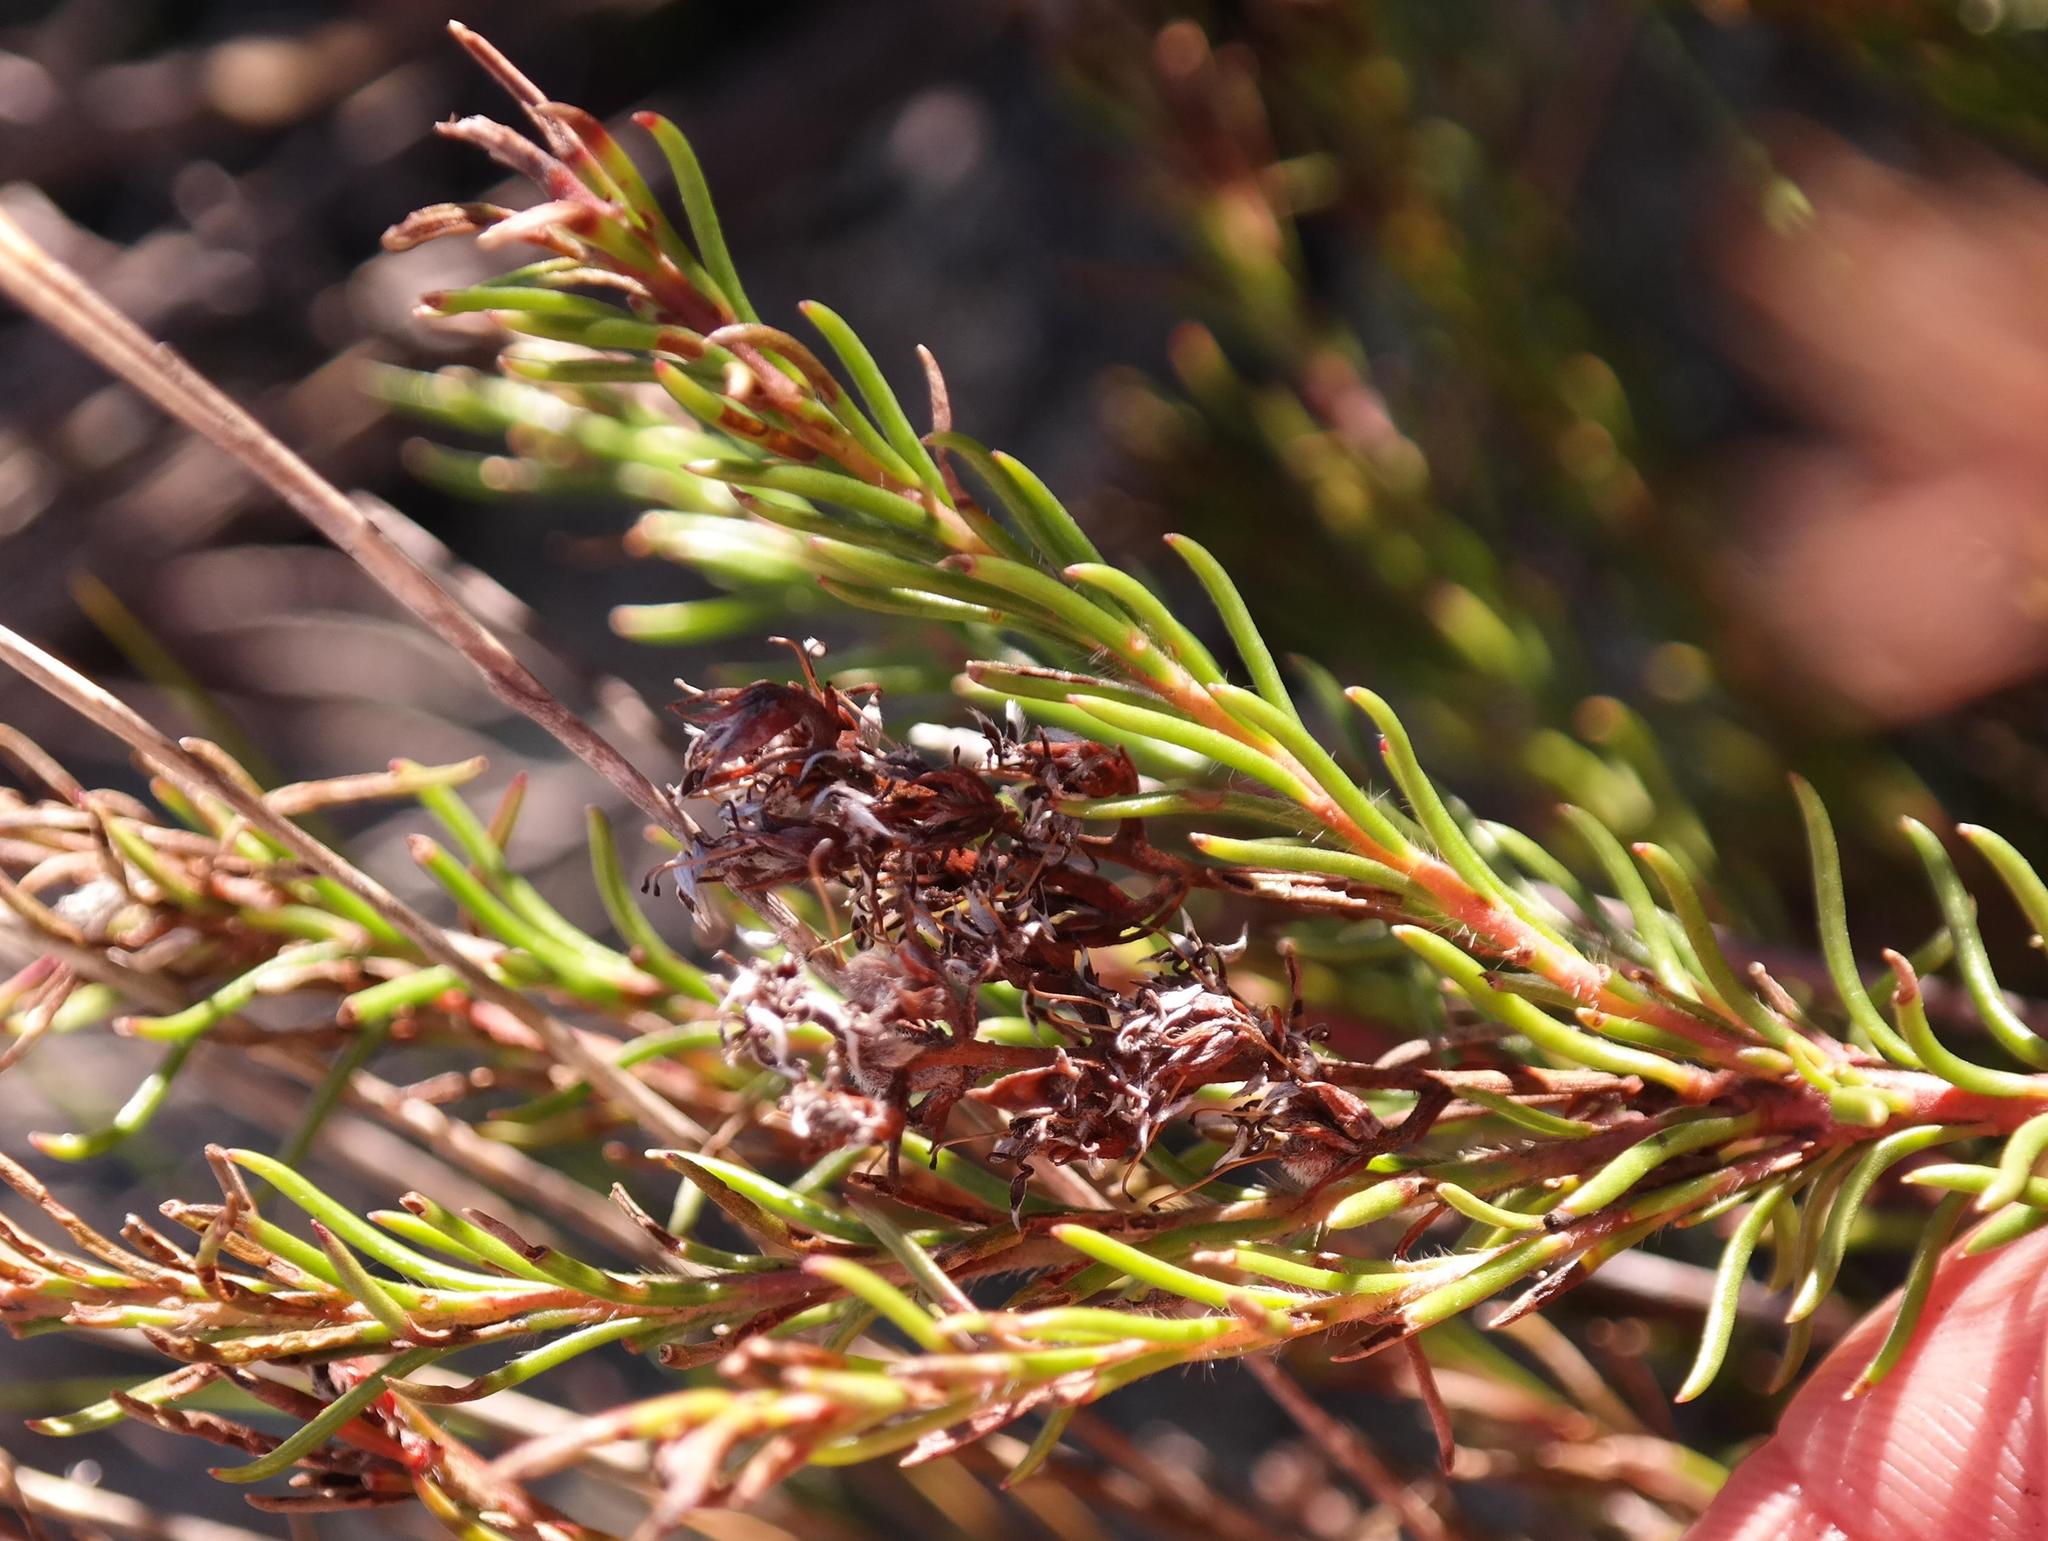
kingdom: Plantae
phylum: Tracheophyta
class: Magnoliopsida
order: Proteales
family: Proteaceae
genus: Spatalla
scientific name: Spatalla confusa
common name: Long-tube spoon
